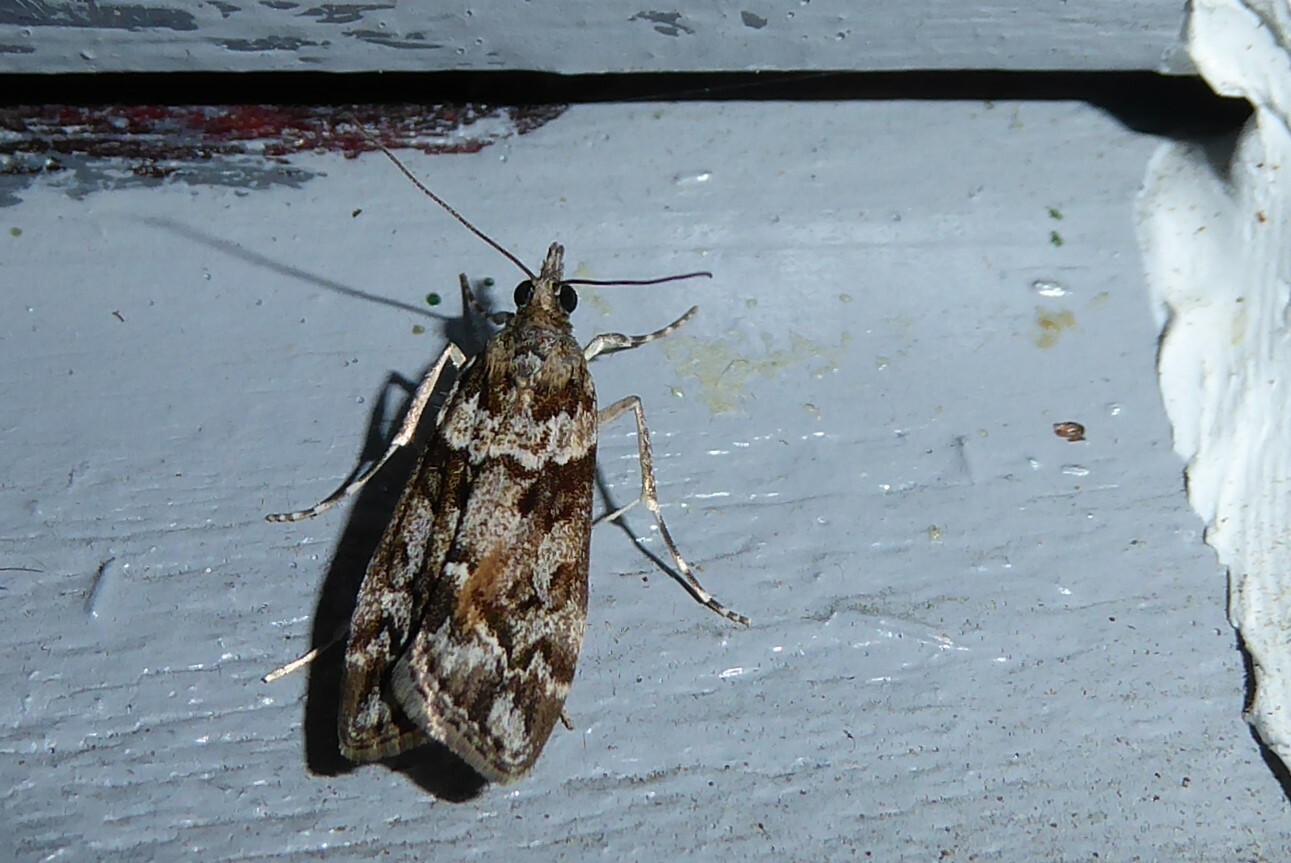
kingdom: Animalia
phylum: Arthropoda
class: Insecta
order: Lepidoptera
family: Crambidae
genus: Eudonia
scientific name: Eudonia submarginalis
